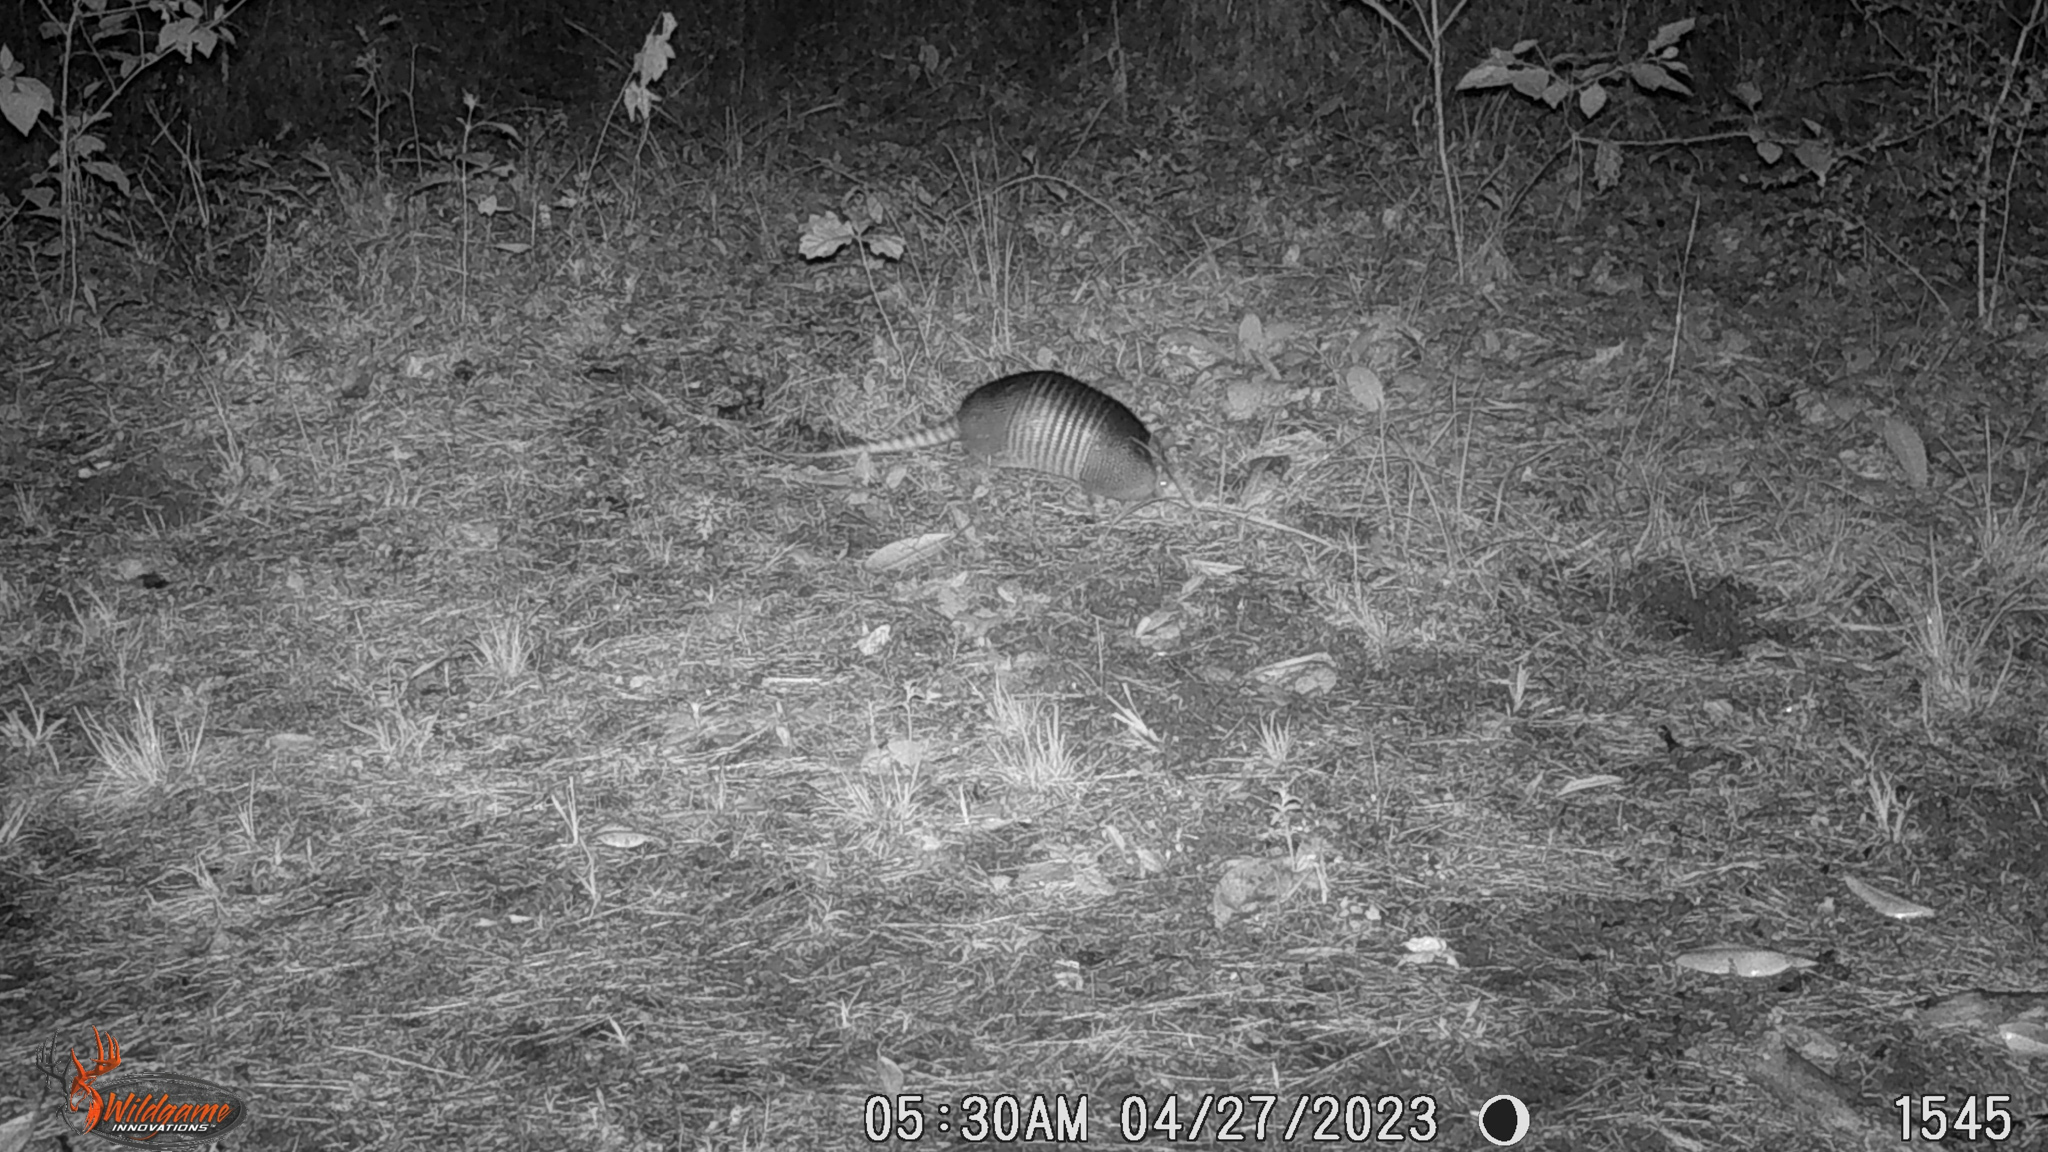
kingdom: Animalia
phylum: Chordata
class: Mammalia
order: Cingulata
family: Dasypodidae
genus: Dasypus
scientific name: Dasypus novemcinctus
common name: Nine-banded armadillo
